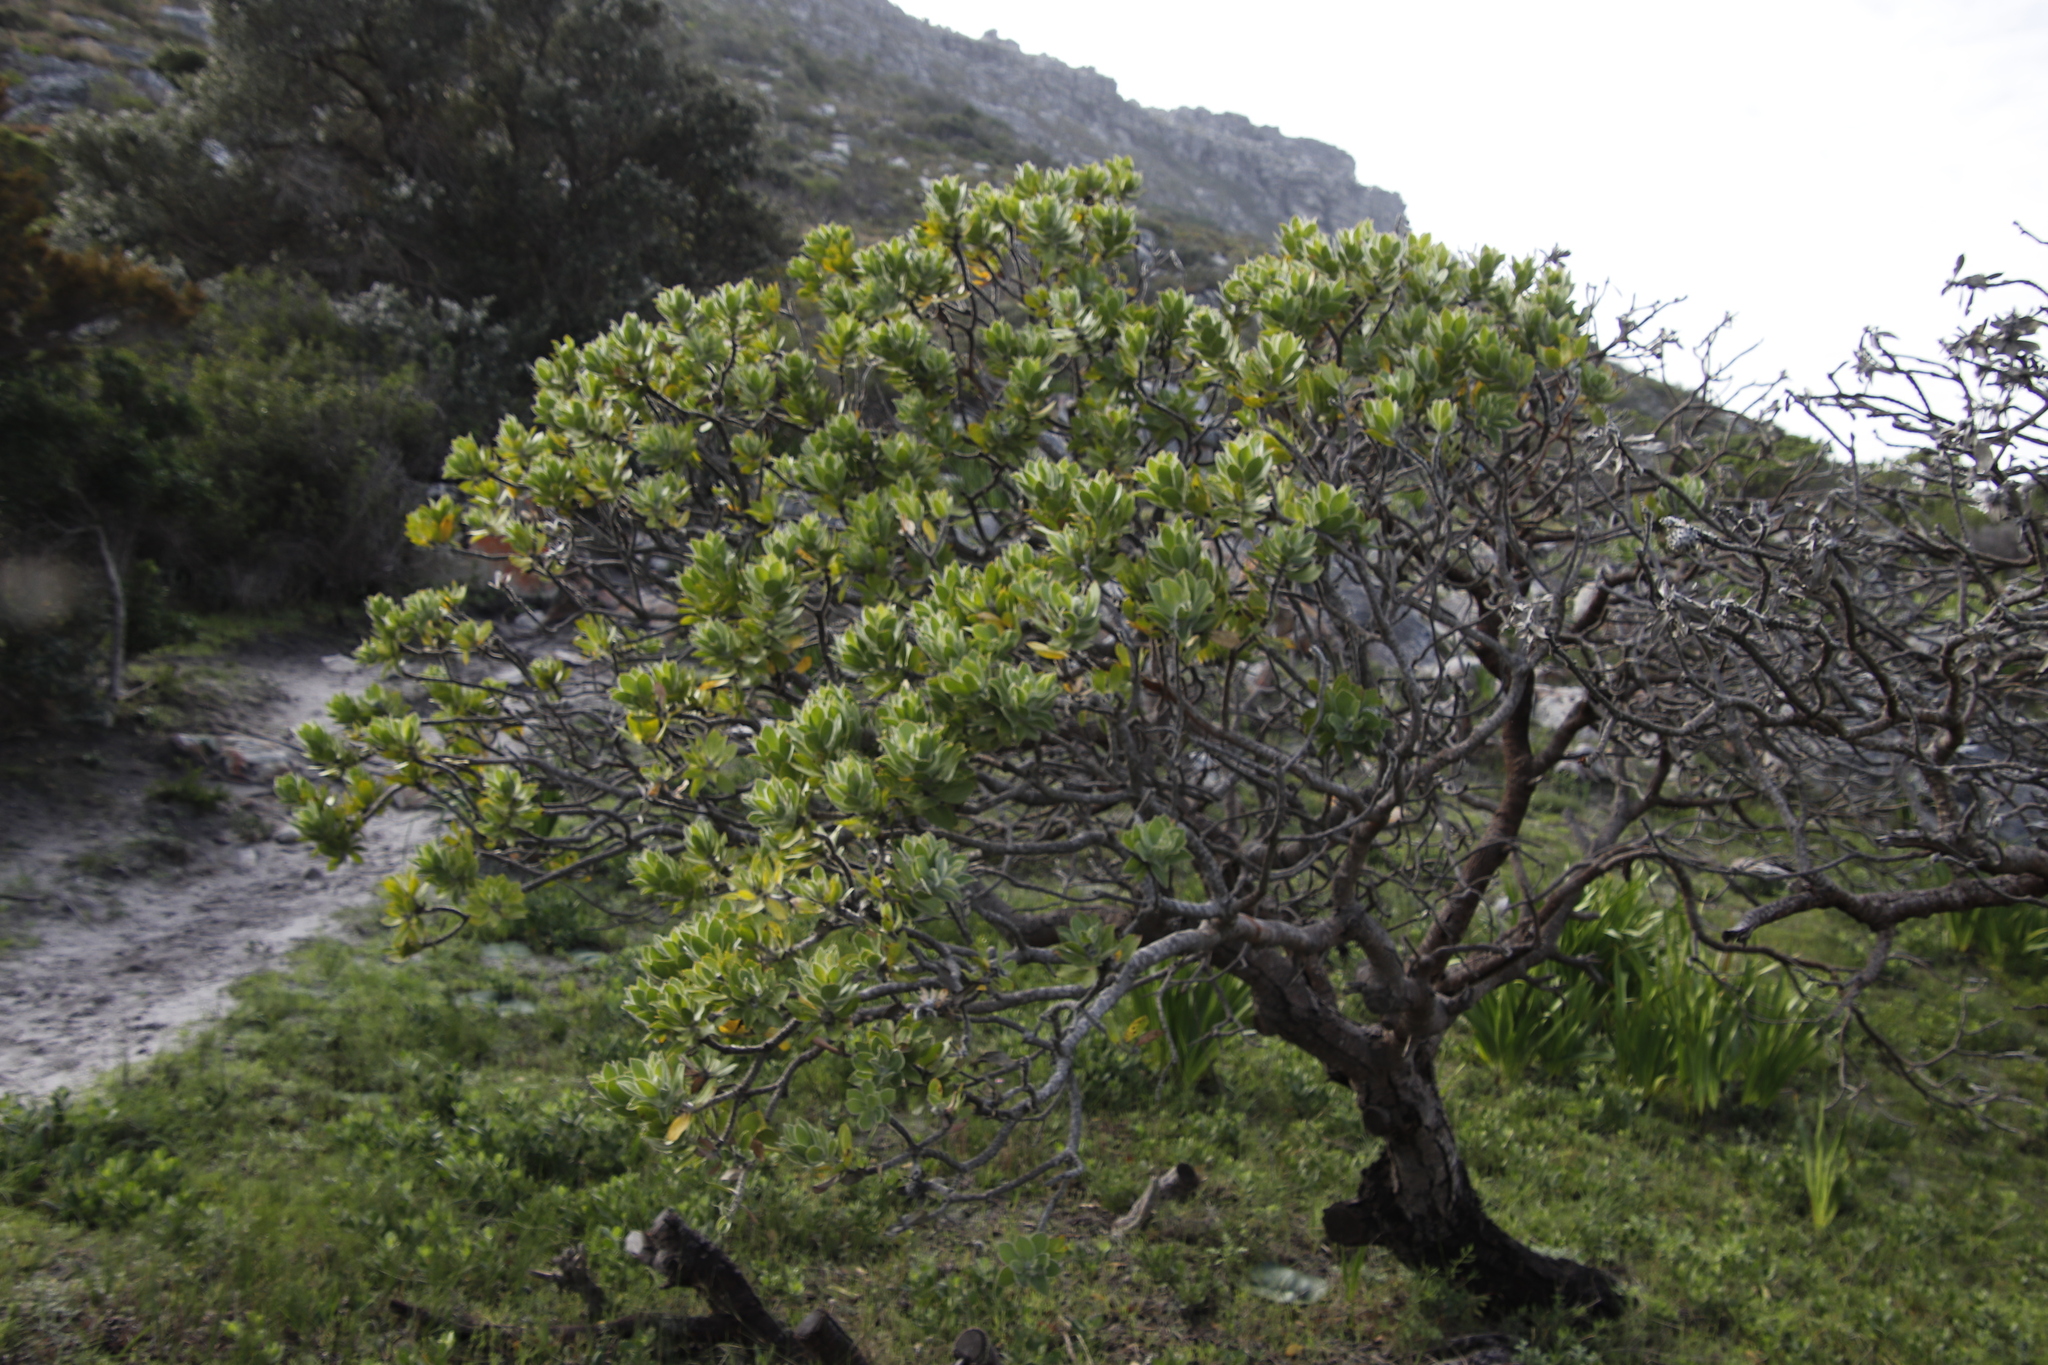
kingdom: Plantae
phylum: Tracheophyta
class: Magnoliopsida
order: Proteales
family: Proteaceae
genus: Leucospermum
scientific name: Leucospermum conocarpodendron
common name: Tree pincushion
